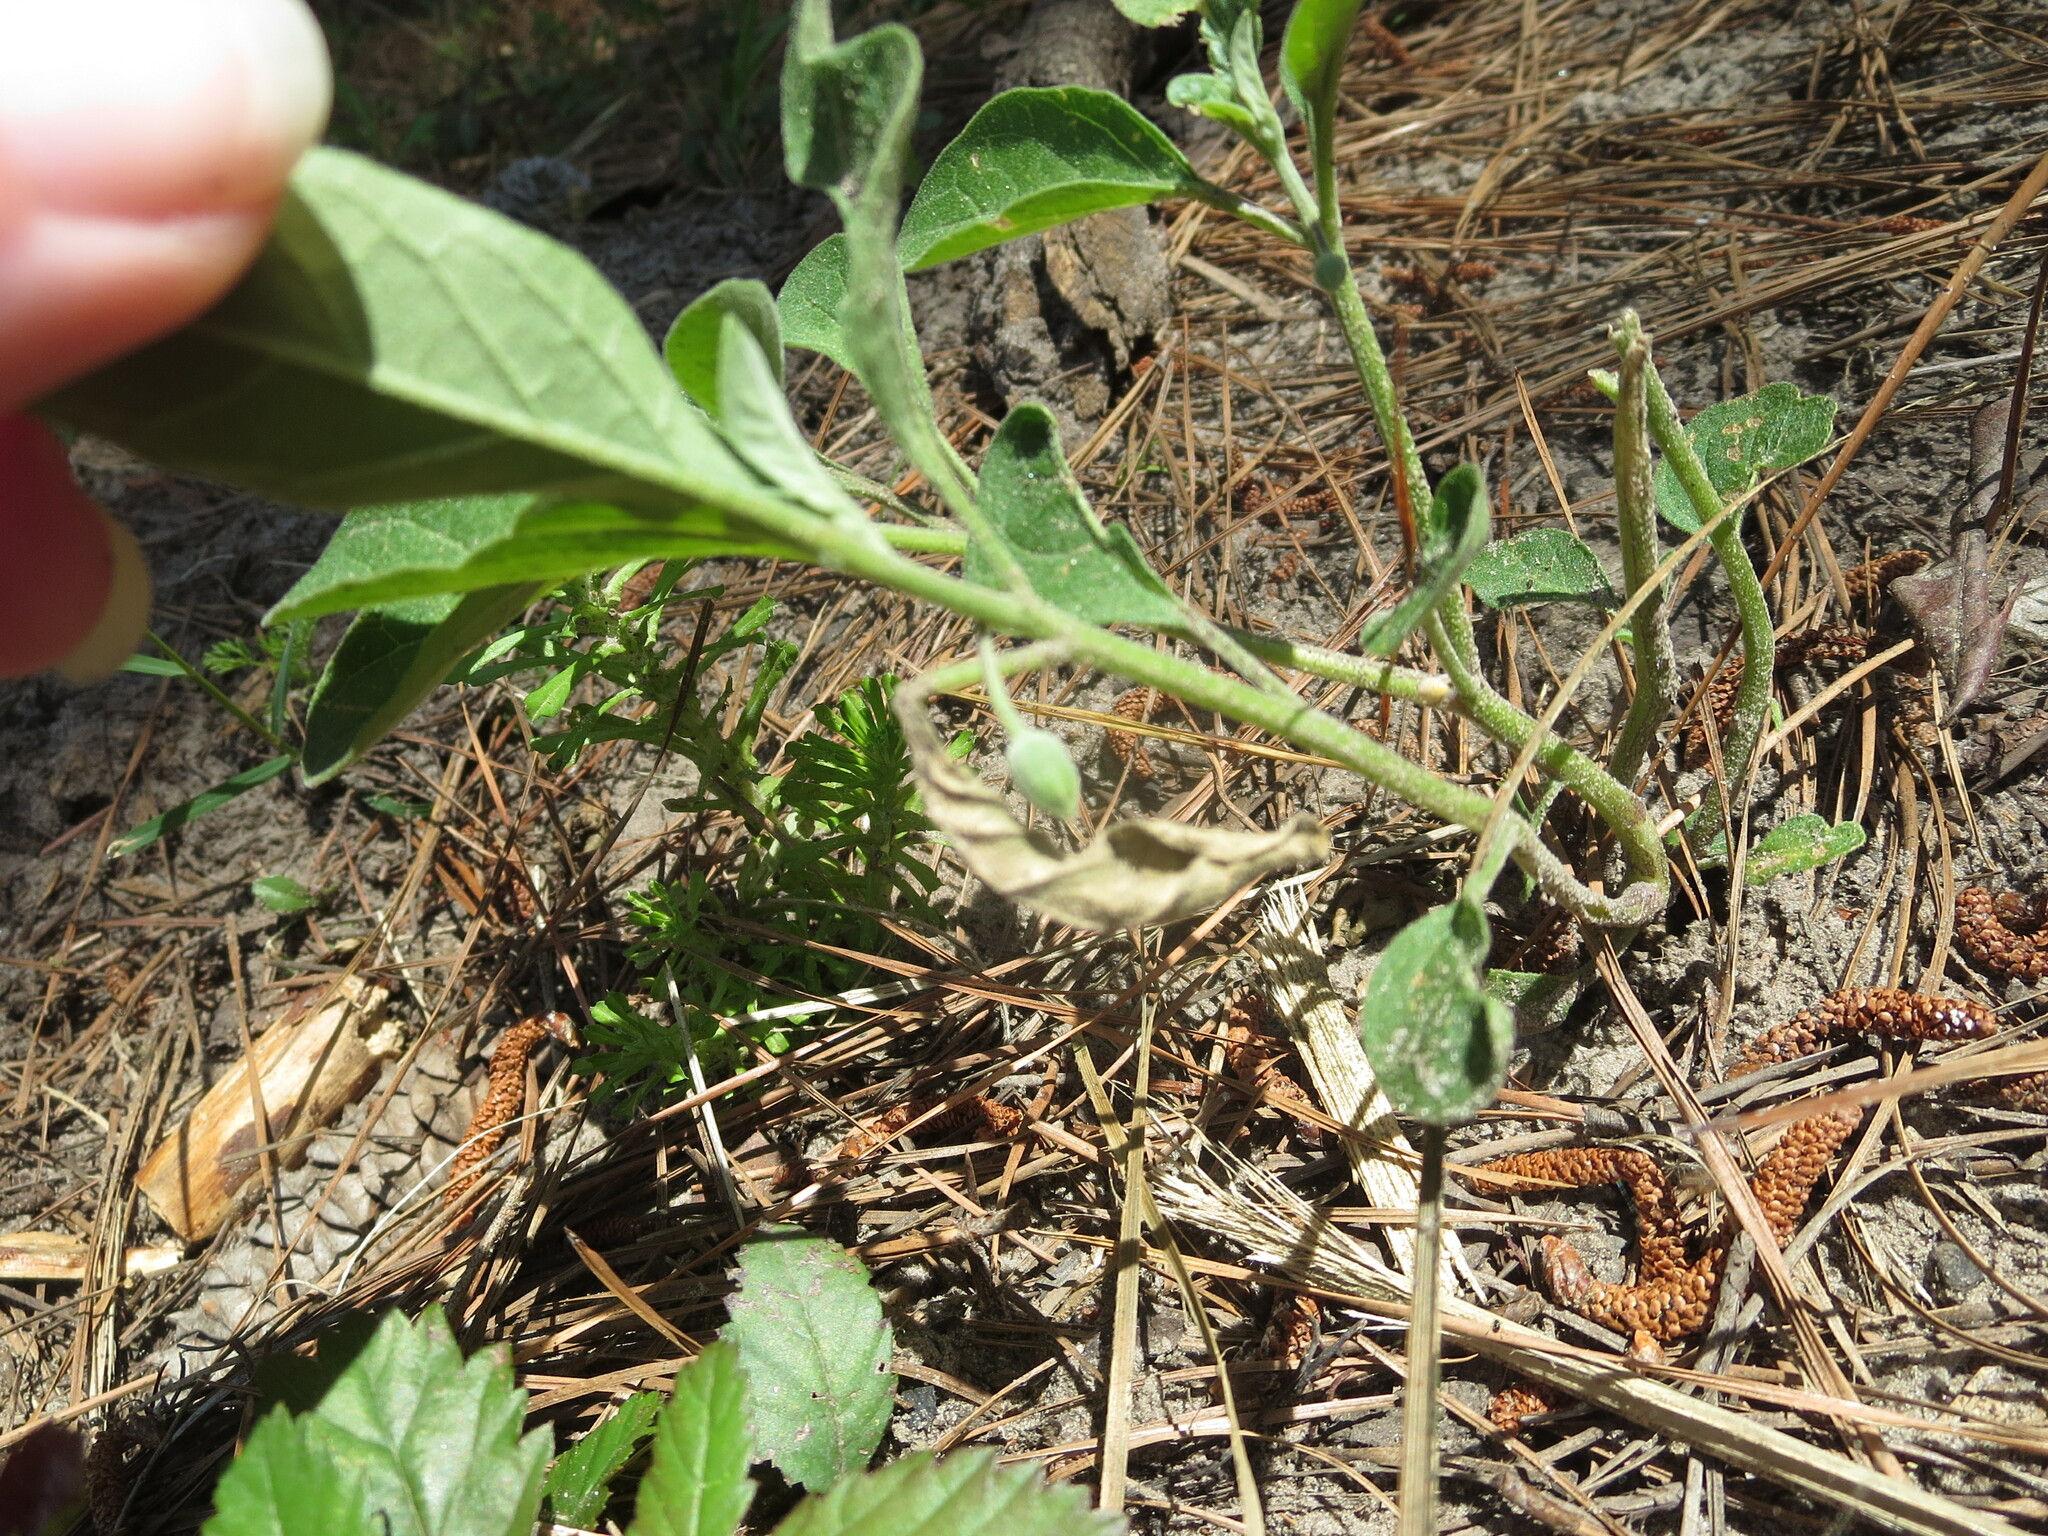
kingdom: Plantae
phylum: Tracheophyta
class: Magnoliopsida
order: Solanales
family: Solanaceae
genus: Physalis
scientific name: Physalis walteri
